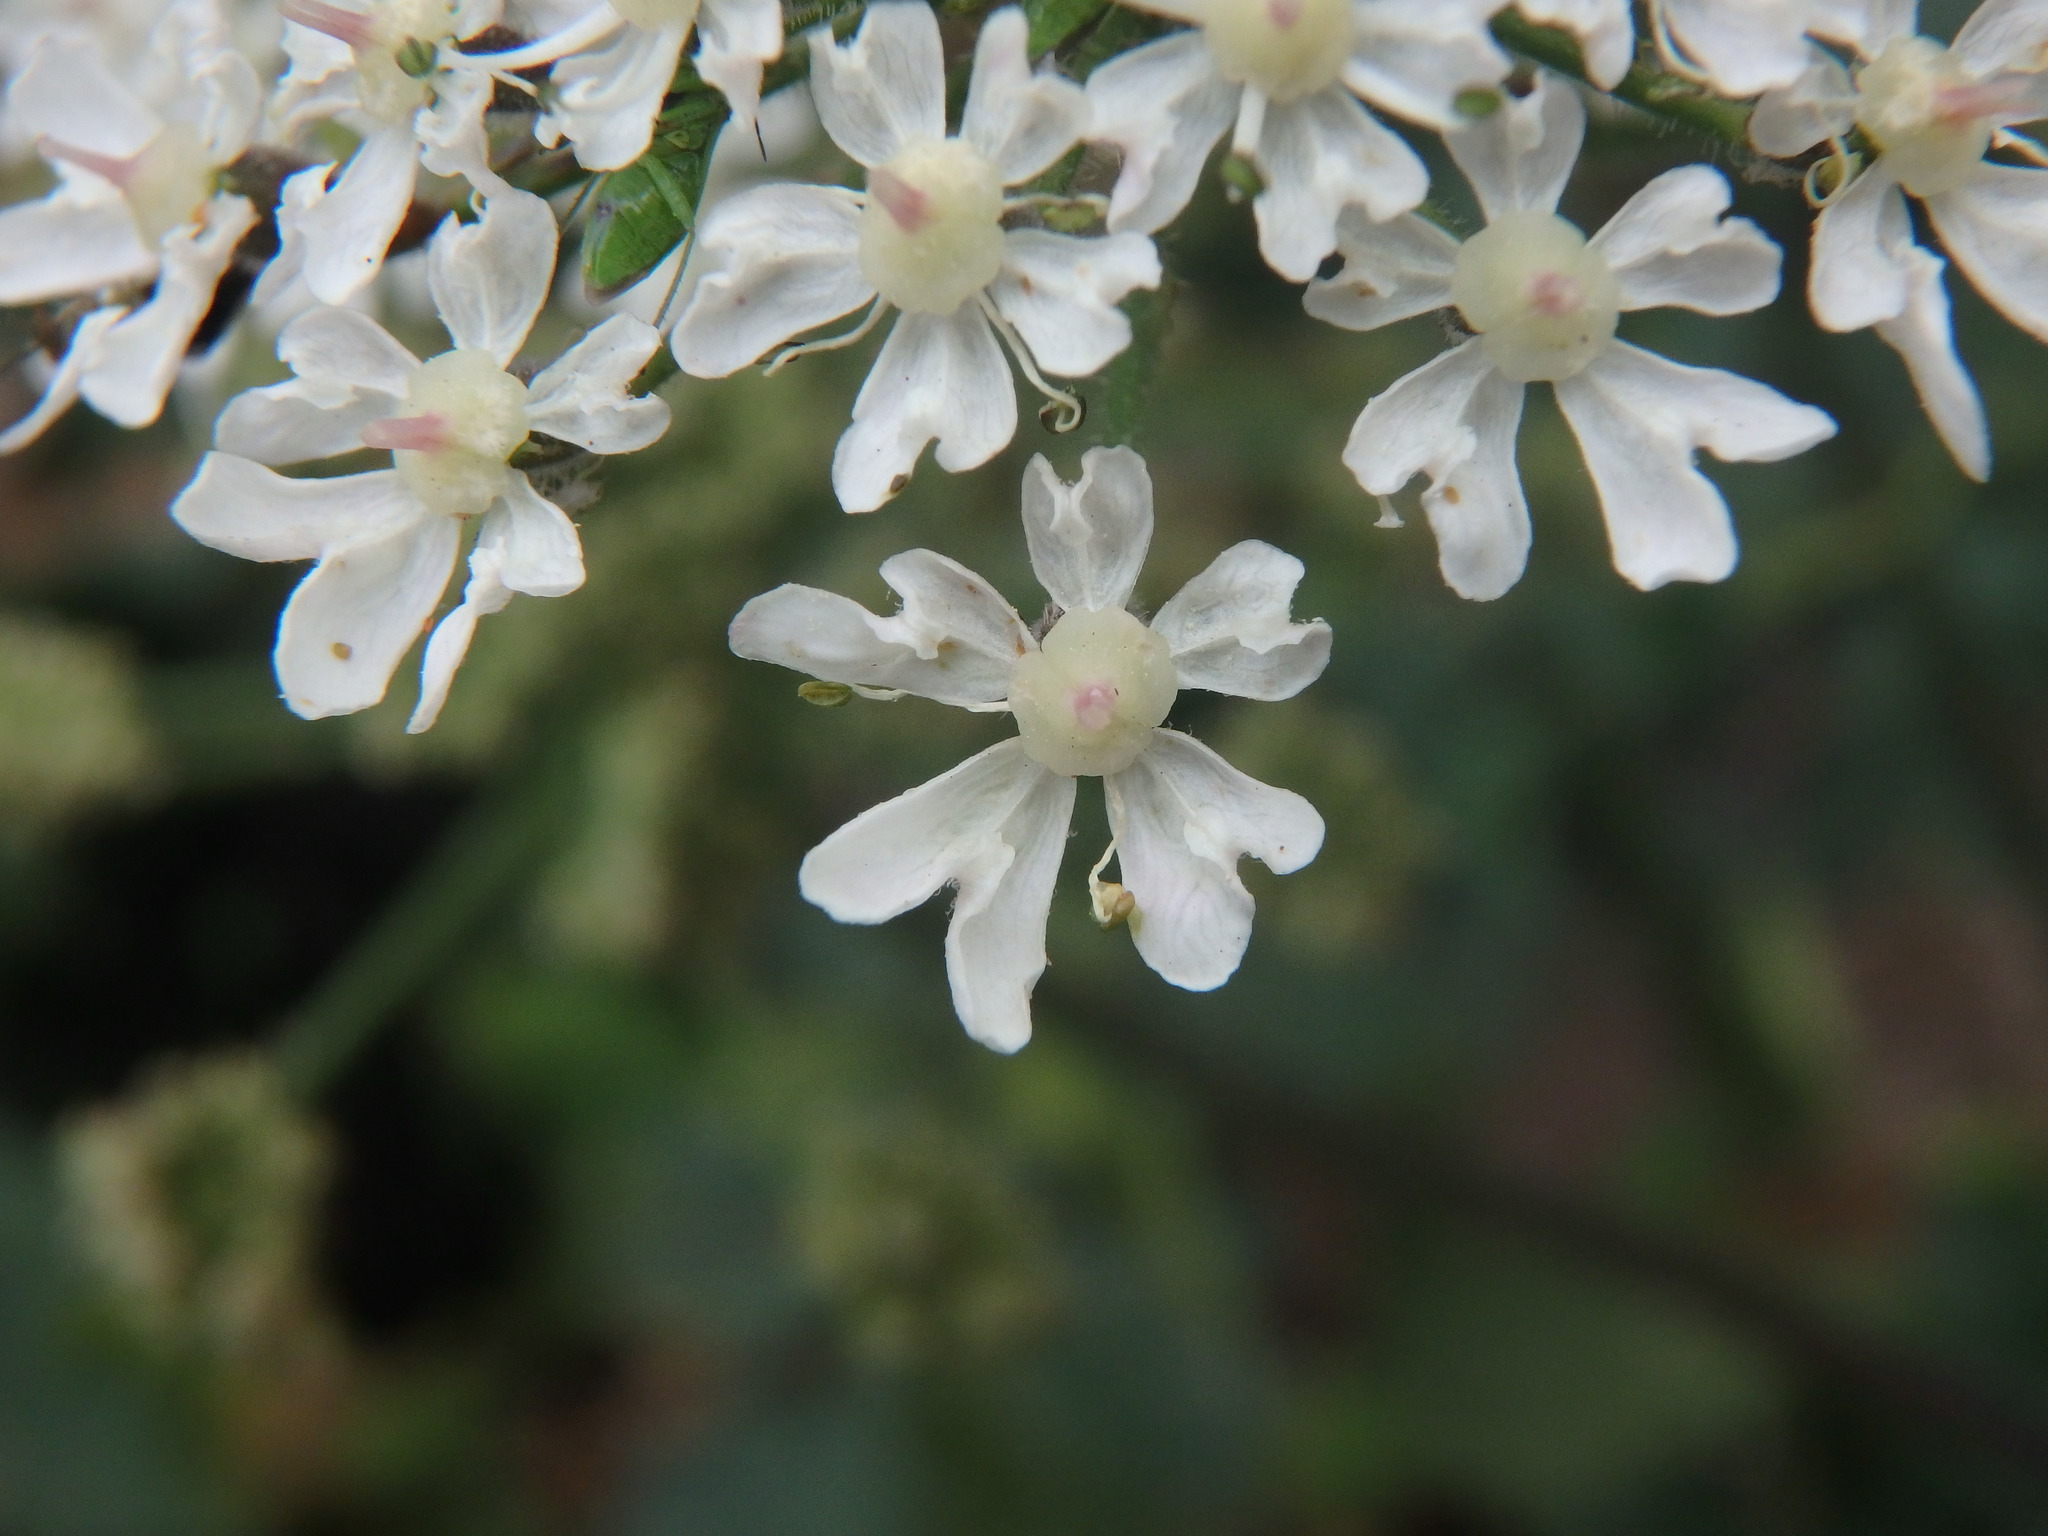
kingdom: Plantae
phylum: Tracheophyta
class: Magnoliopsida
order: Apiales
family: Apiaceae
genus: Heracleum
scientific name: Heracleum sphondylium
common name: Hogweed
